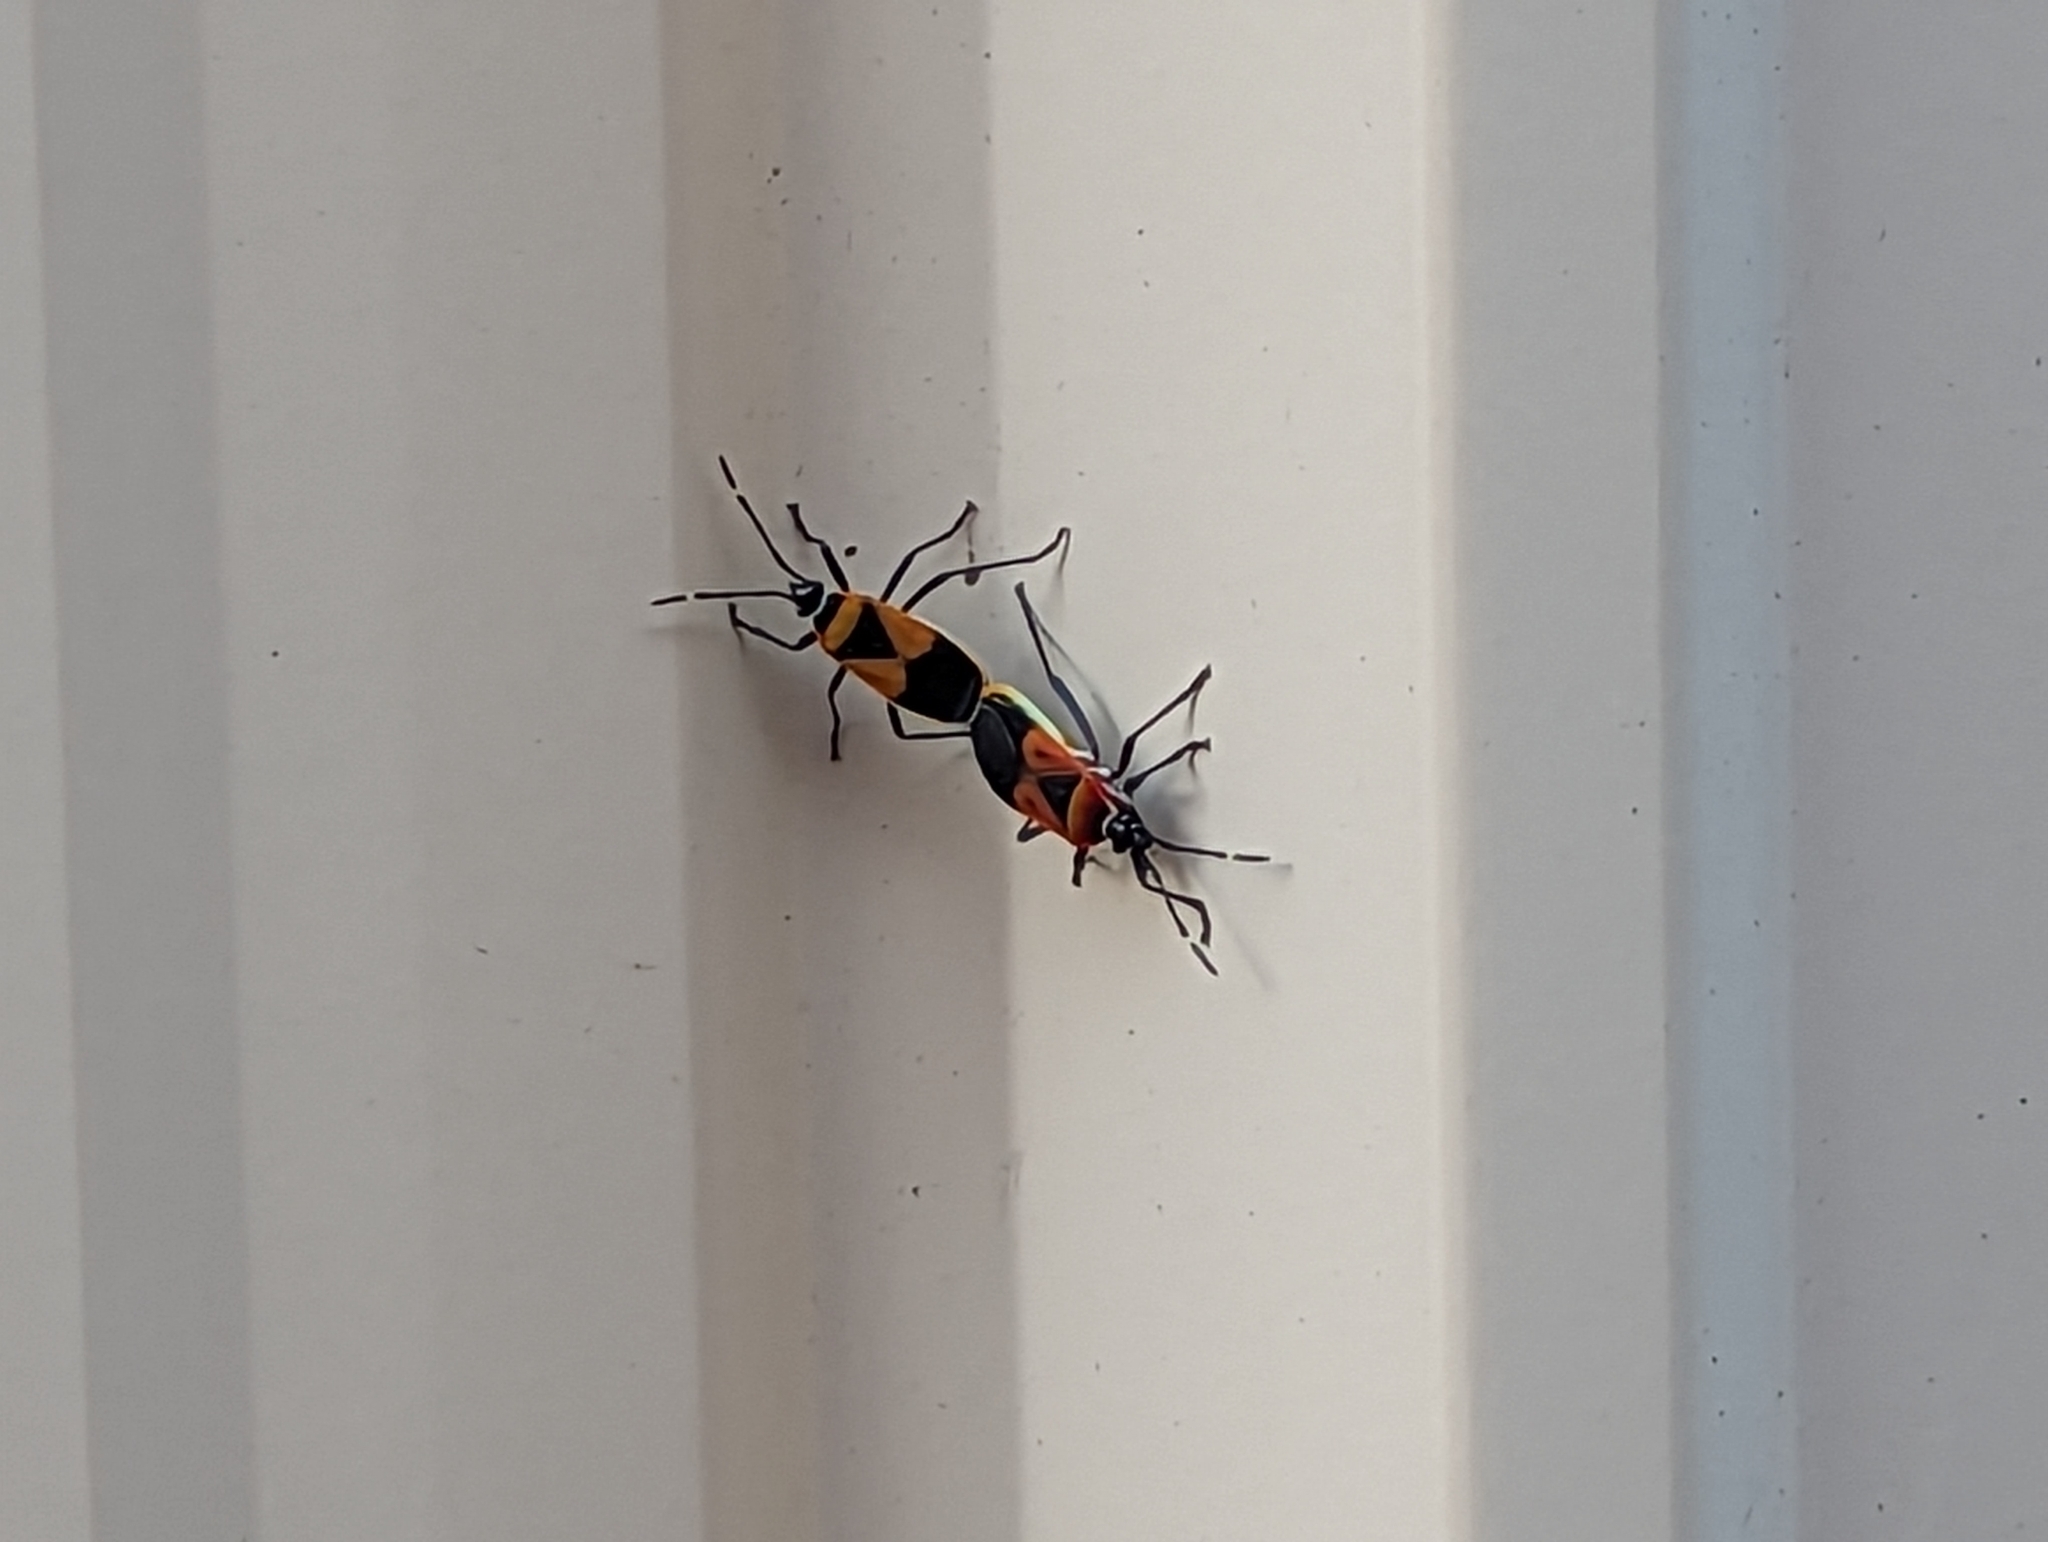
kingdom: Animalia
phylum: Arthropoda
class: Insecta
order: Hemiptera
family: Pyrrhocoridae
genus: Dindymus
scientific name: Dindymus
